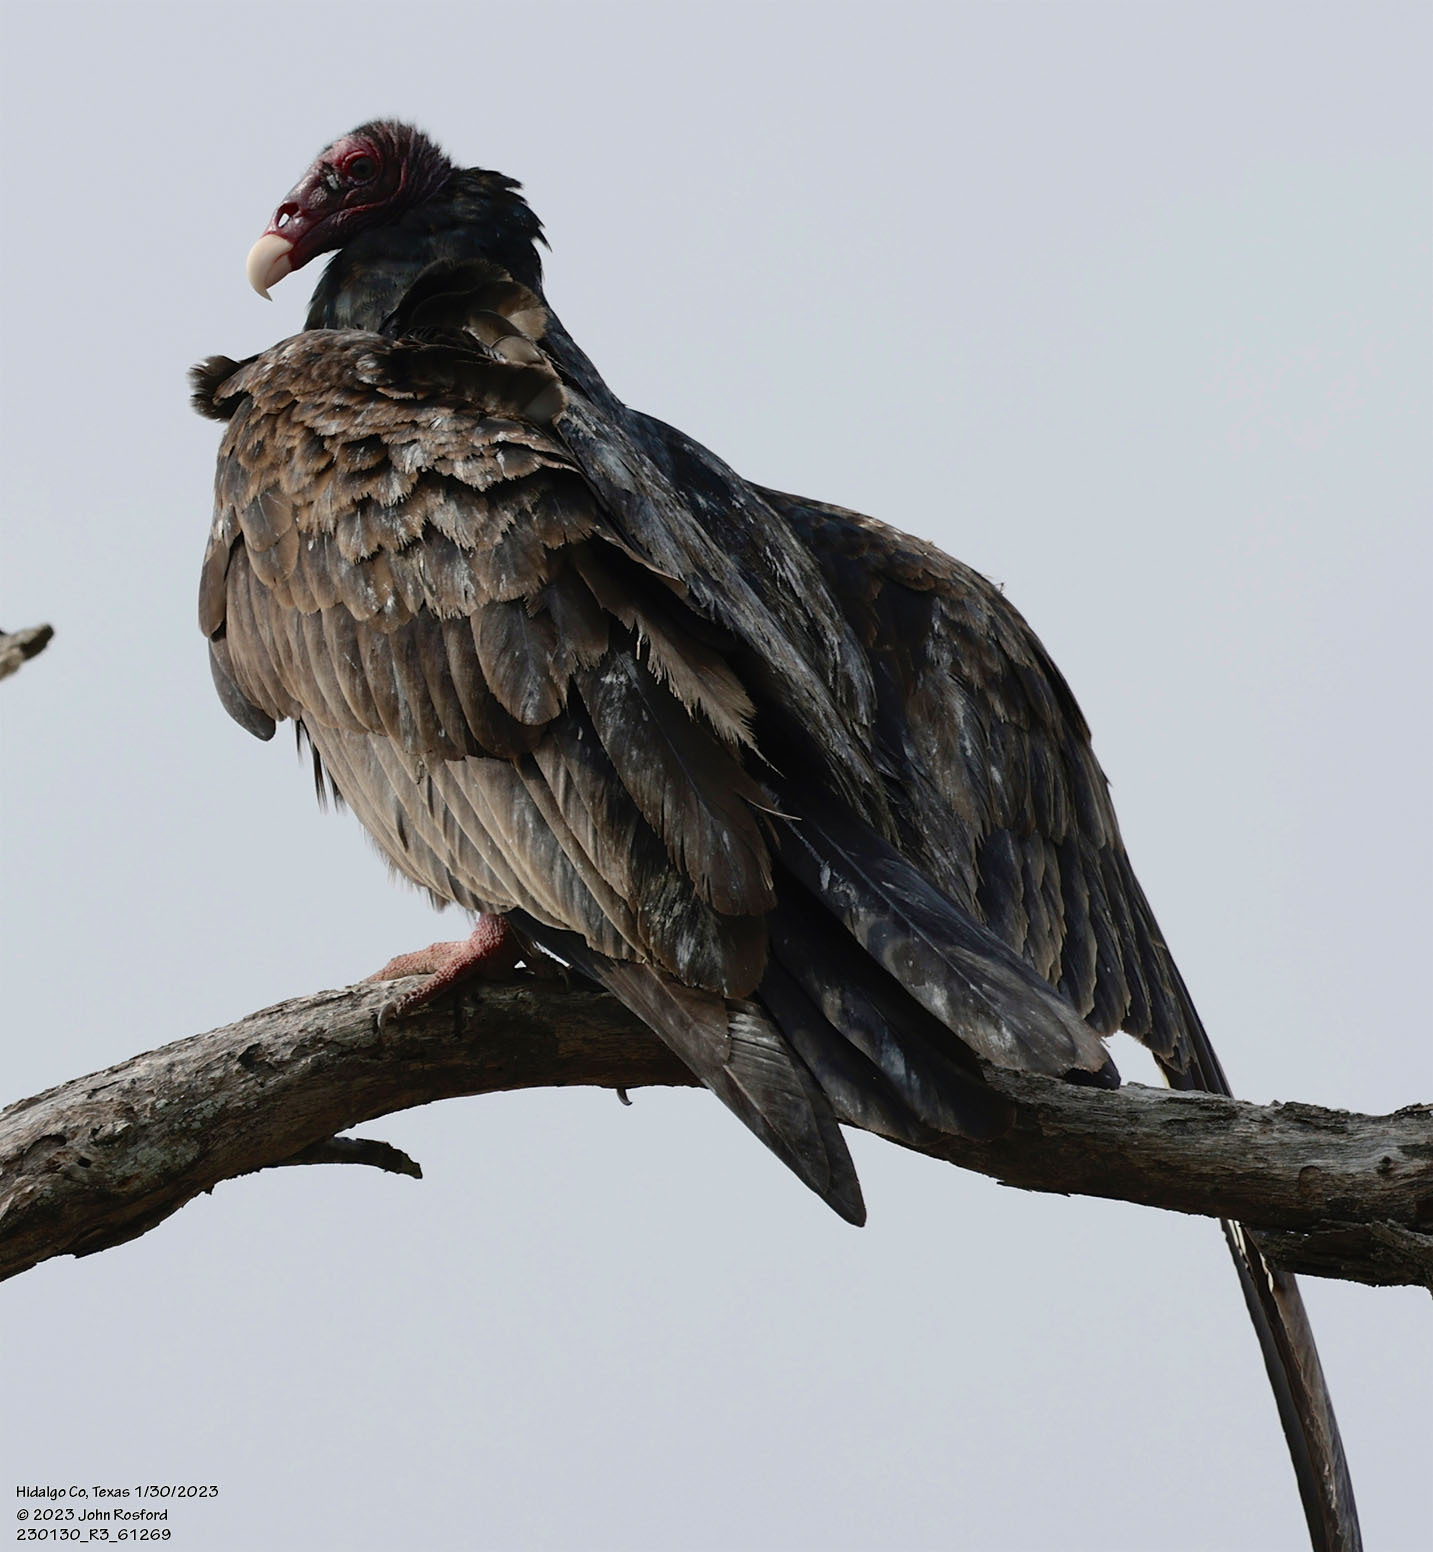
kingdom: Animalia
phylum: Chordata
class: Aves
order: Accipitriformes
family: Cathartidae
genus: Cathartes
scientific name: Cathartes aura
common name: Turkey vulture
